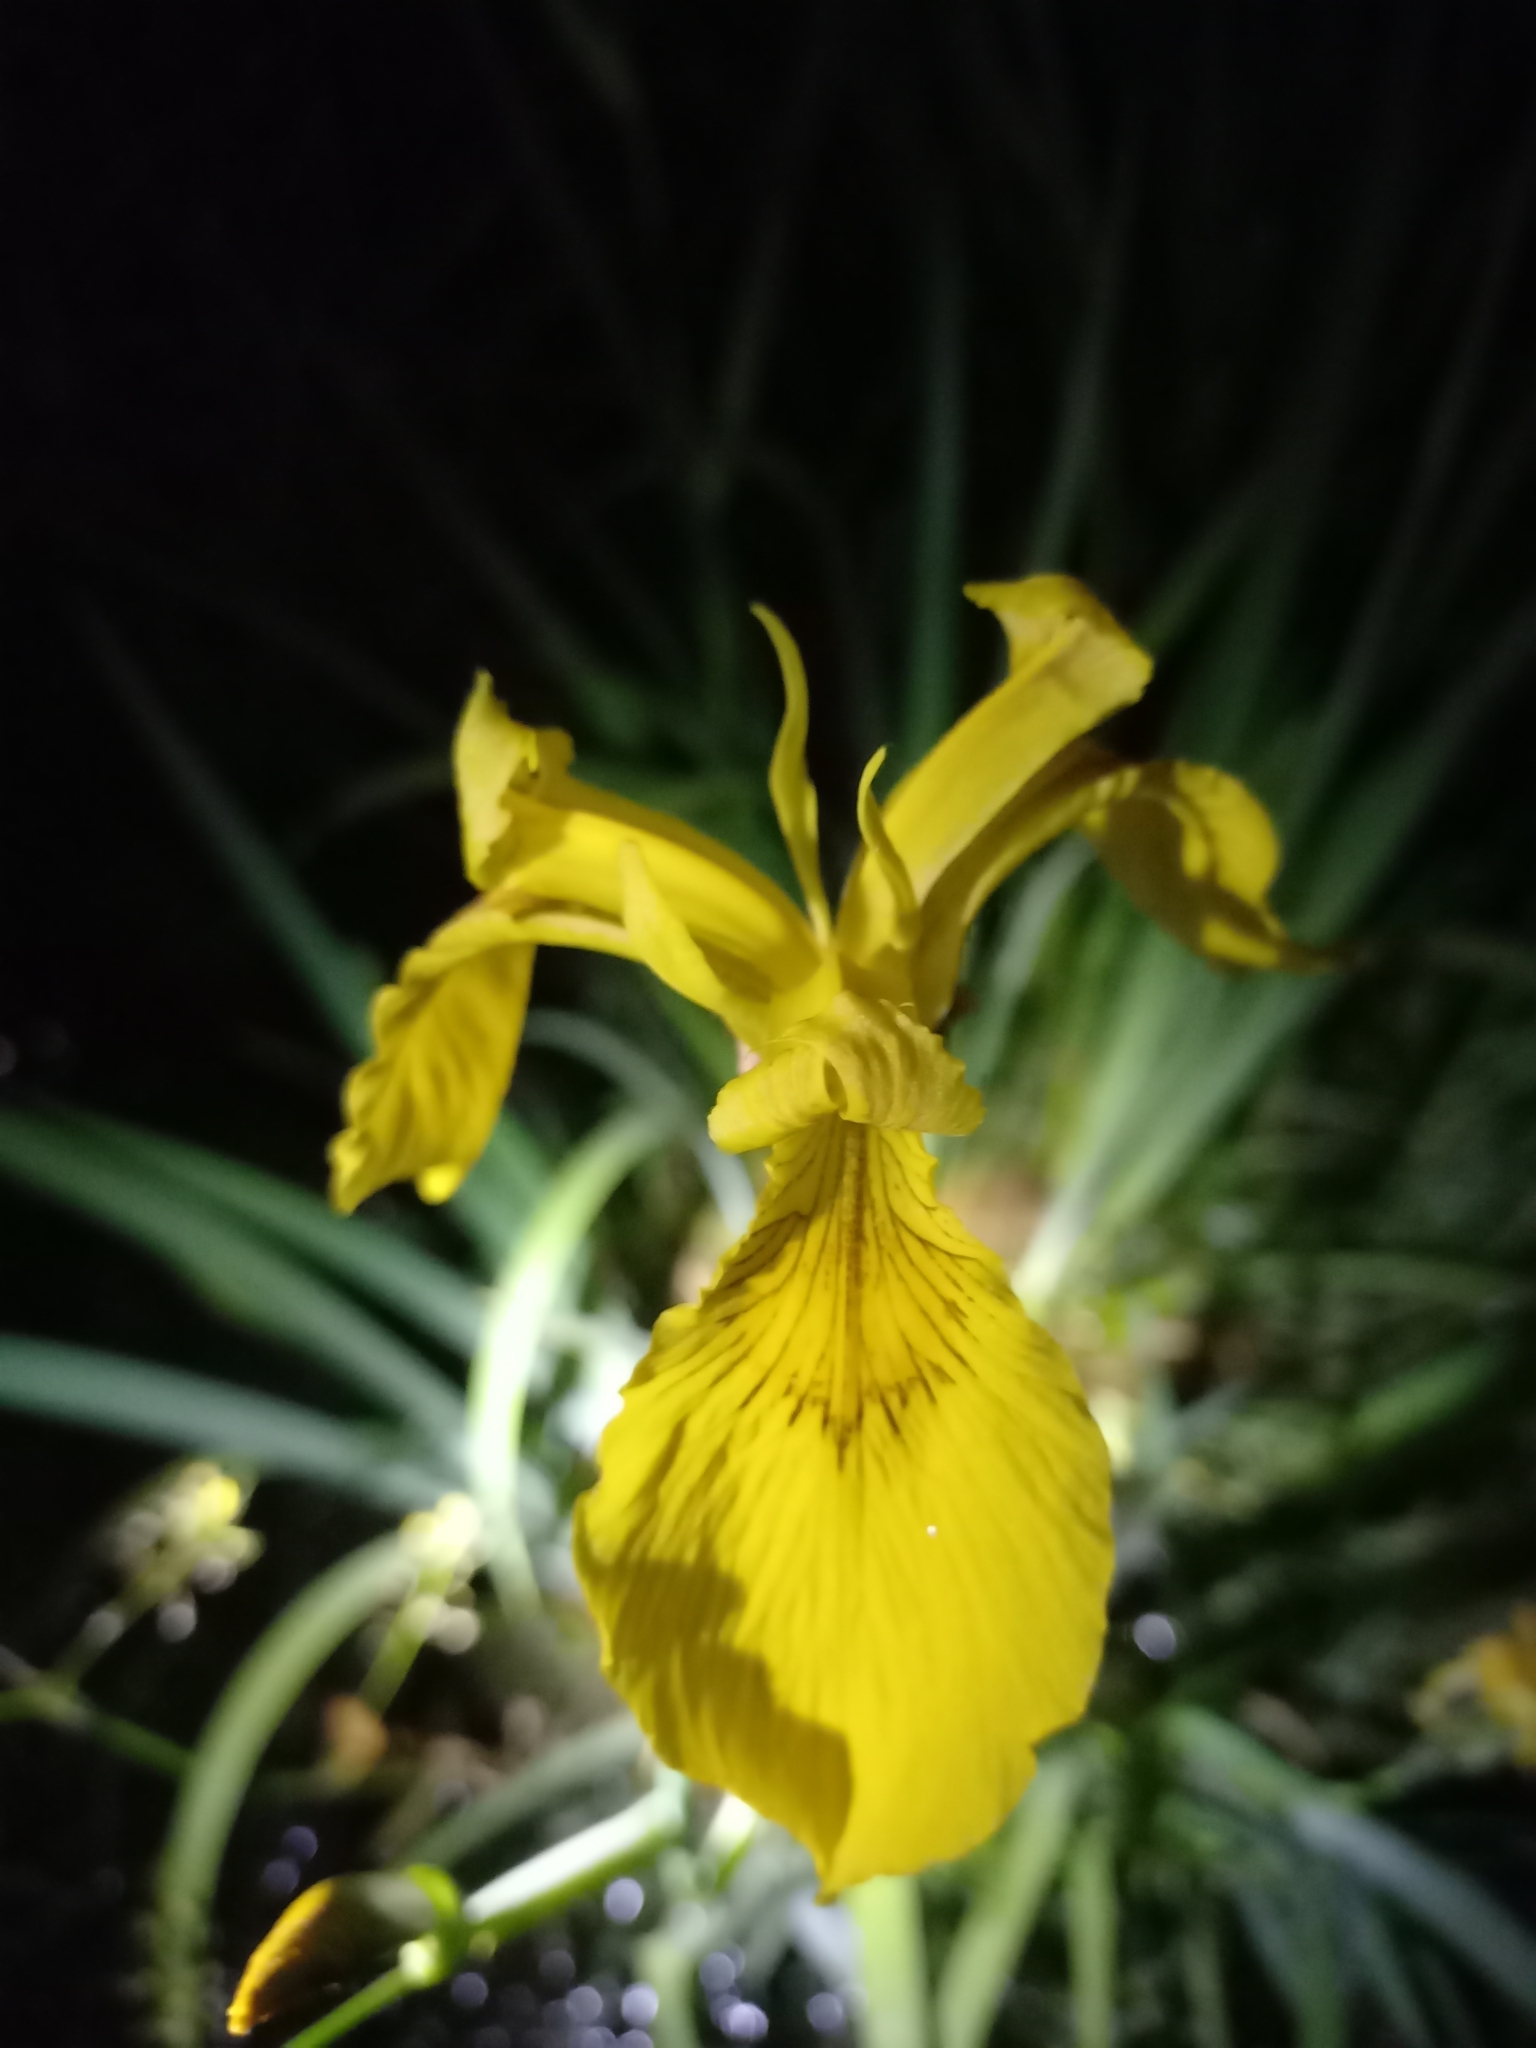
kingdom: Plantae
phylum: Tracheophyta
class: Liliopsida
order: Asparagales
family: Iridaceae
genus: Iris
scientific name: Iris pseudacorus
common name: Yellow flag
